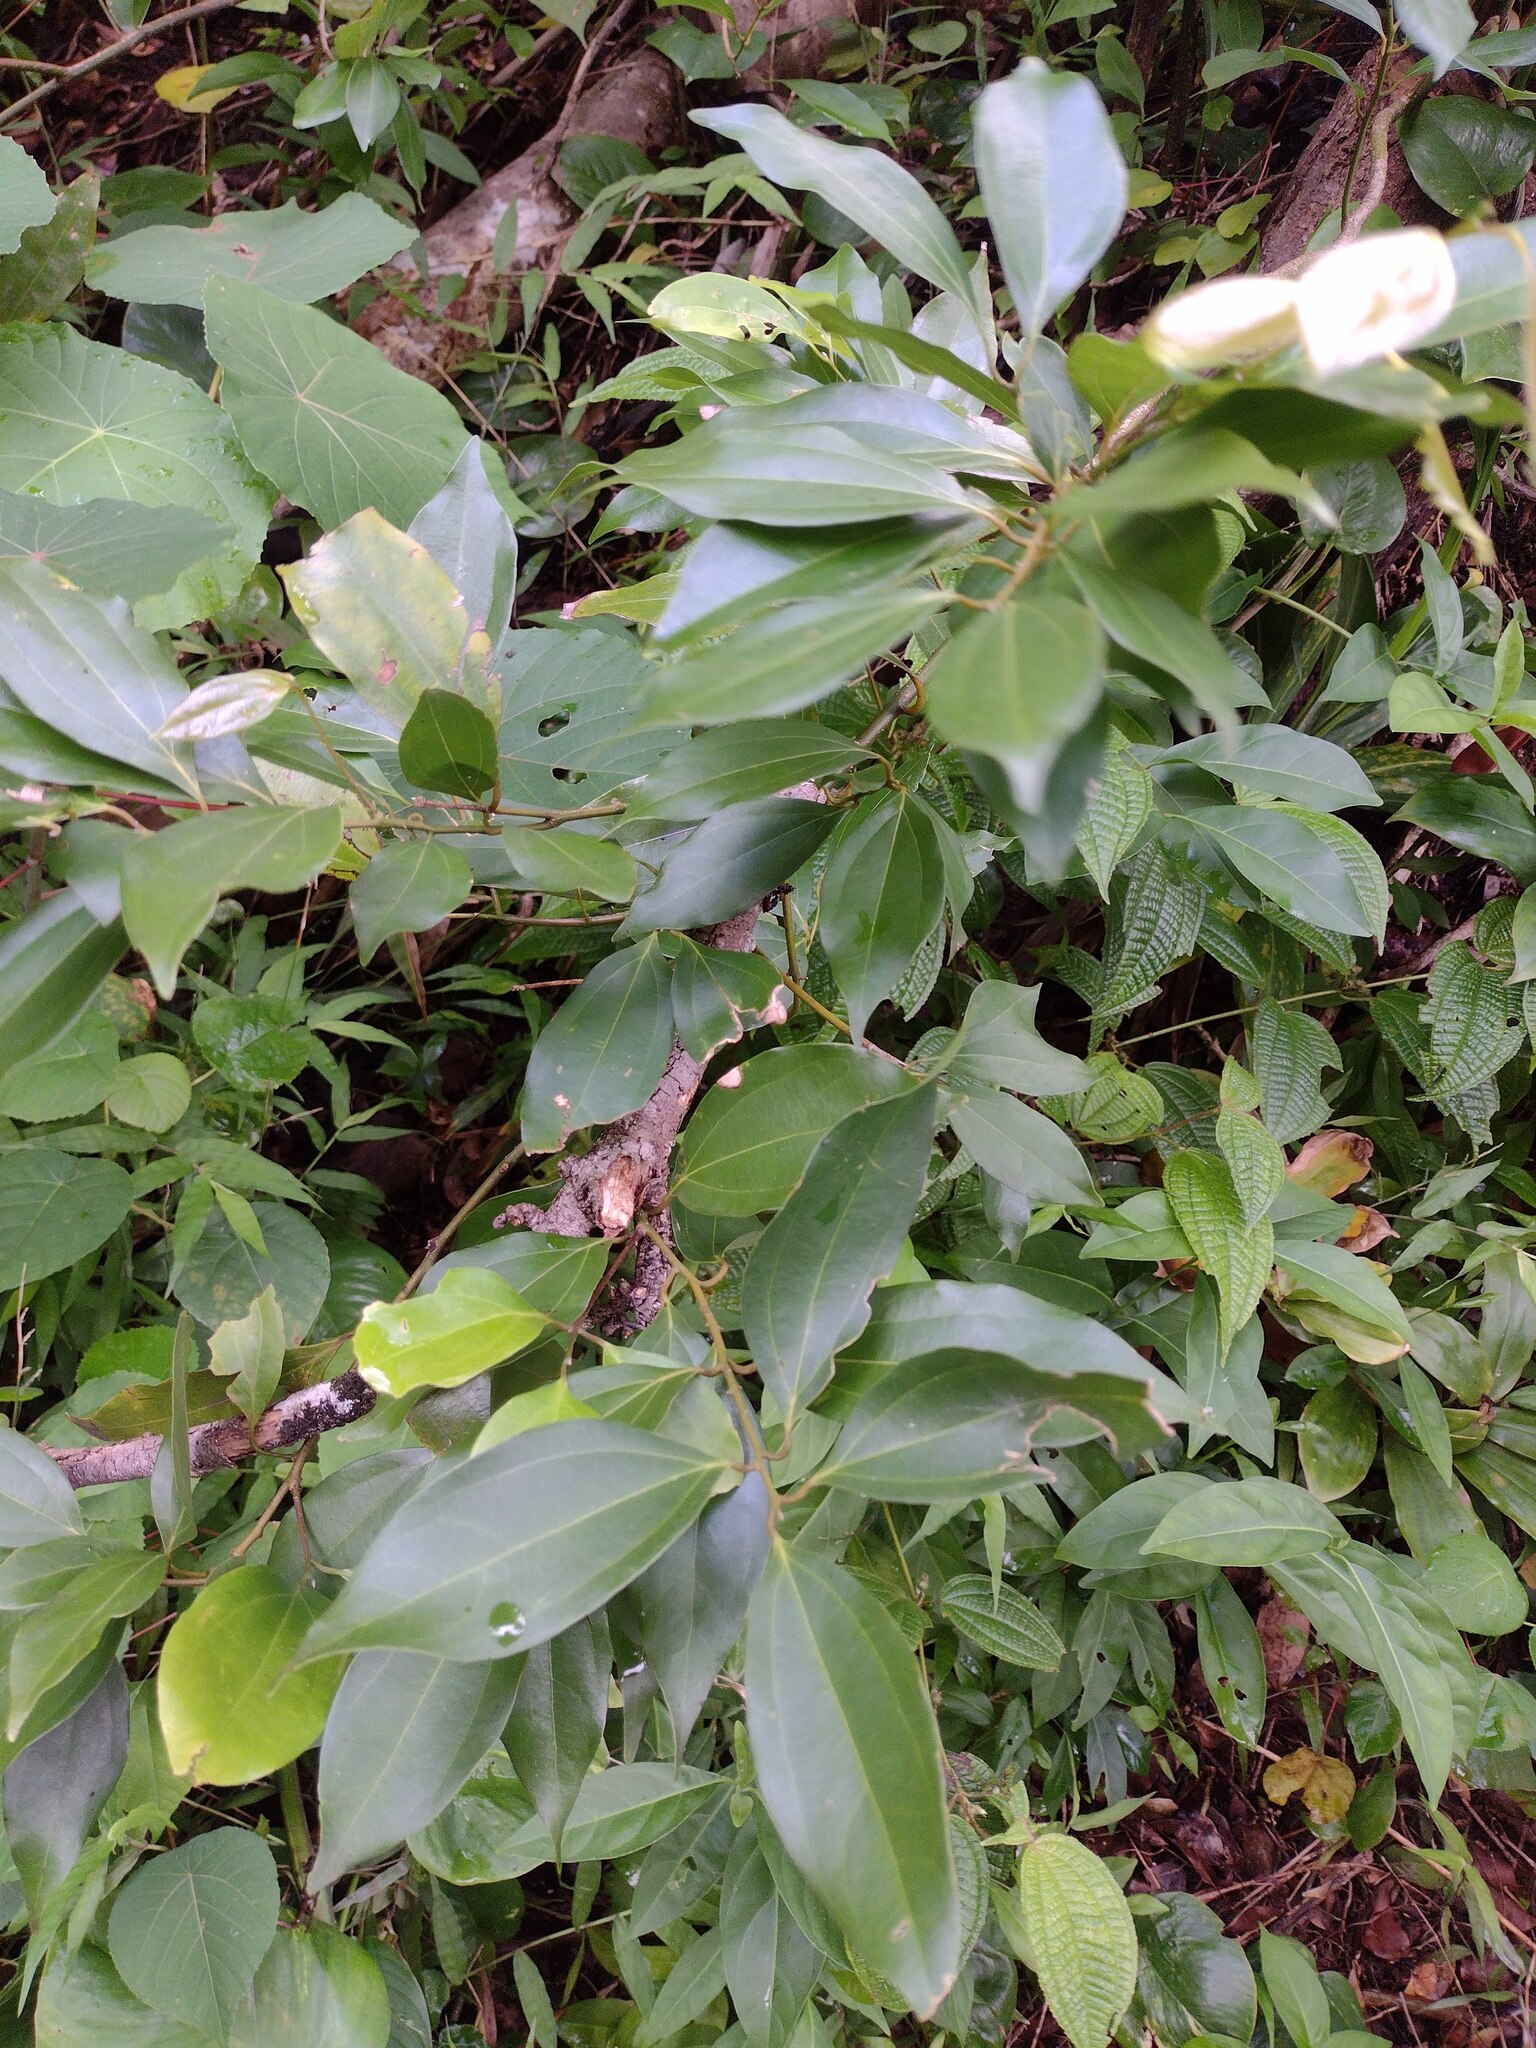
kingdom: Plantae
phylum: Tracheophyta
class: Magnoliopsida
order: Laurales
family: Lauraceae
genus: Cinnamomum
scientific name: Cinnamomum burmanni
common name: Padang cassia
